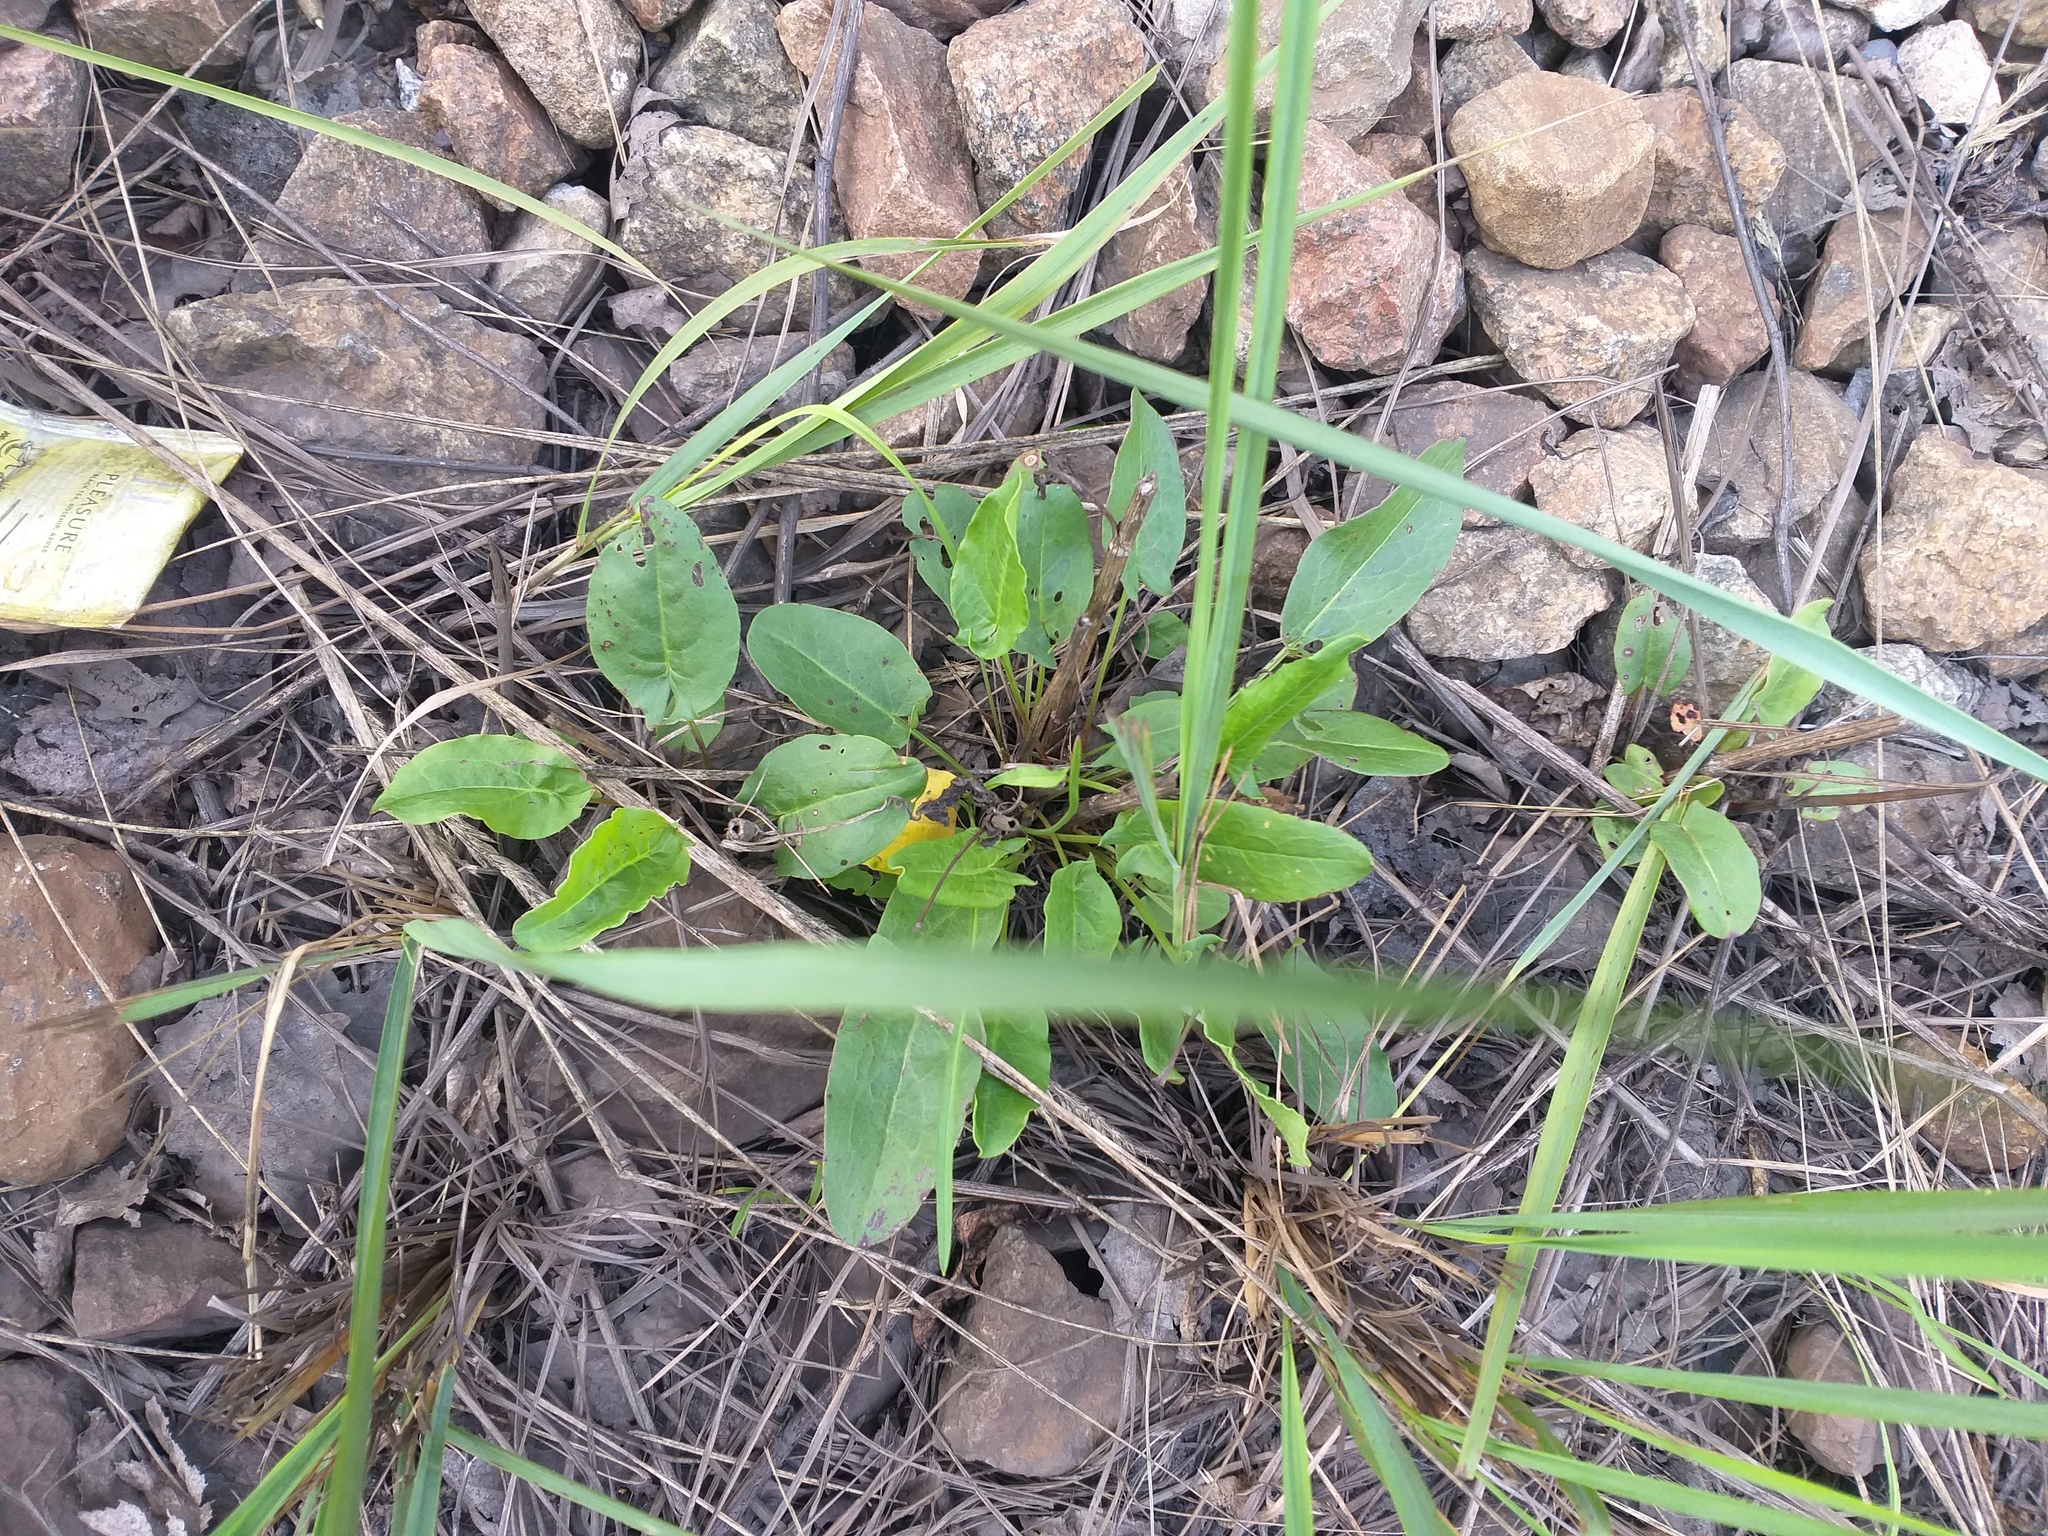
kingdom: Plantae
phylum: Tracheophyta
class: Magnoliopsida
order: Caryophyllales
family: Polygonaceae
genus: Rumex
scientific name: Rumex acetosa
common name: Garden sorrel
